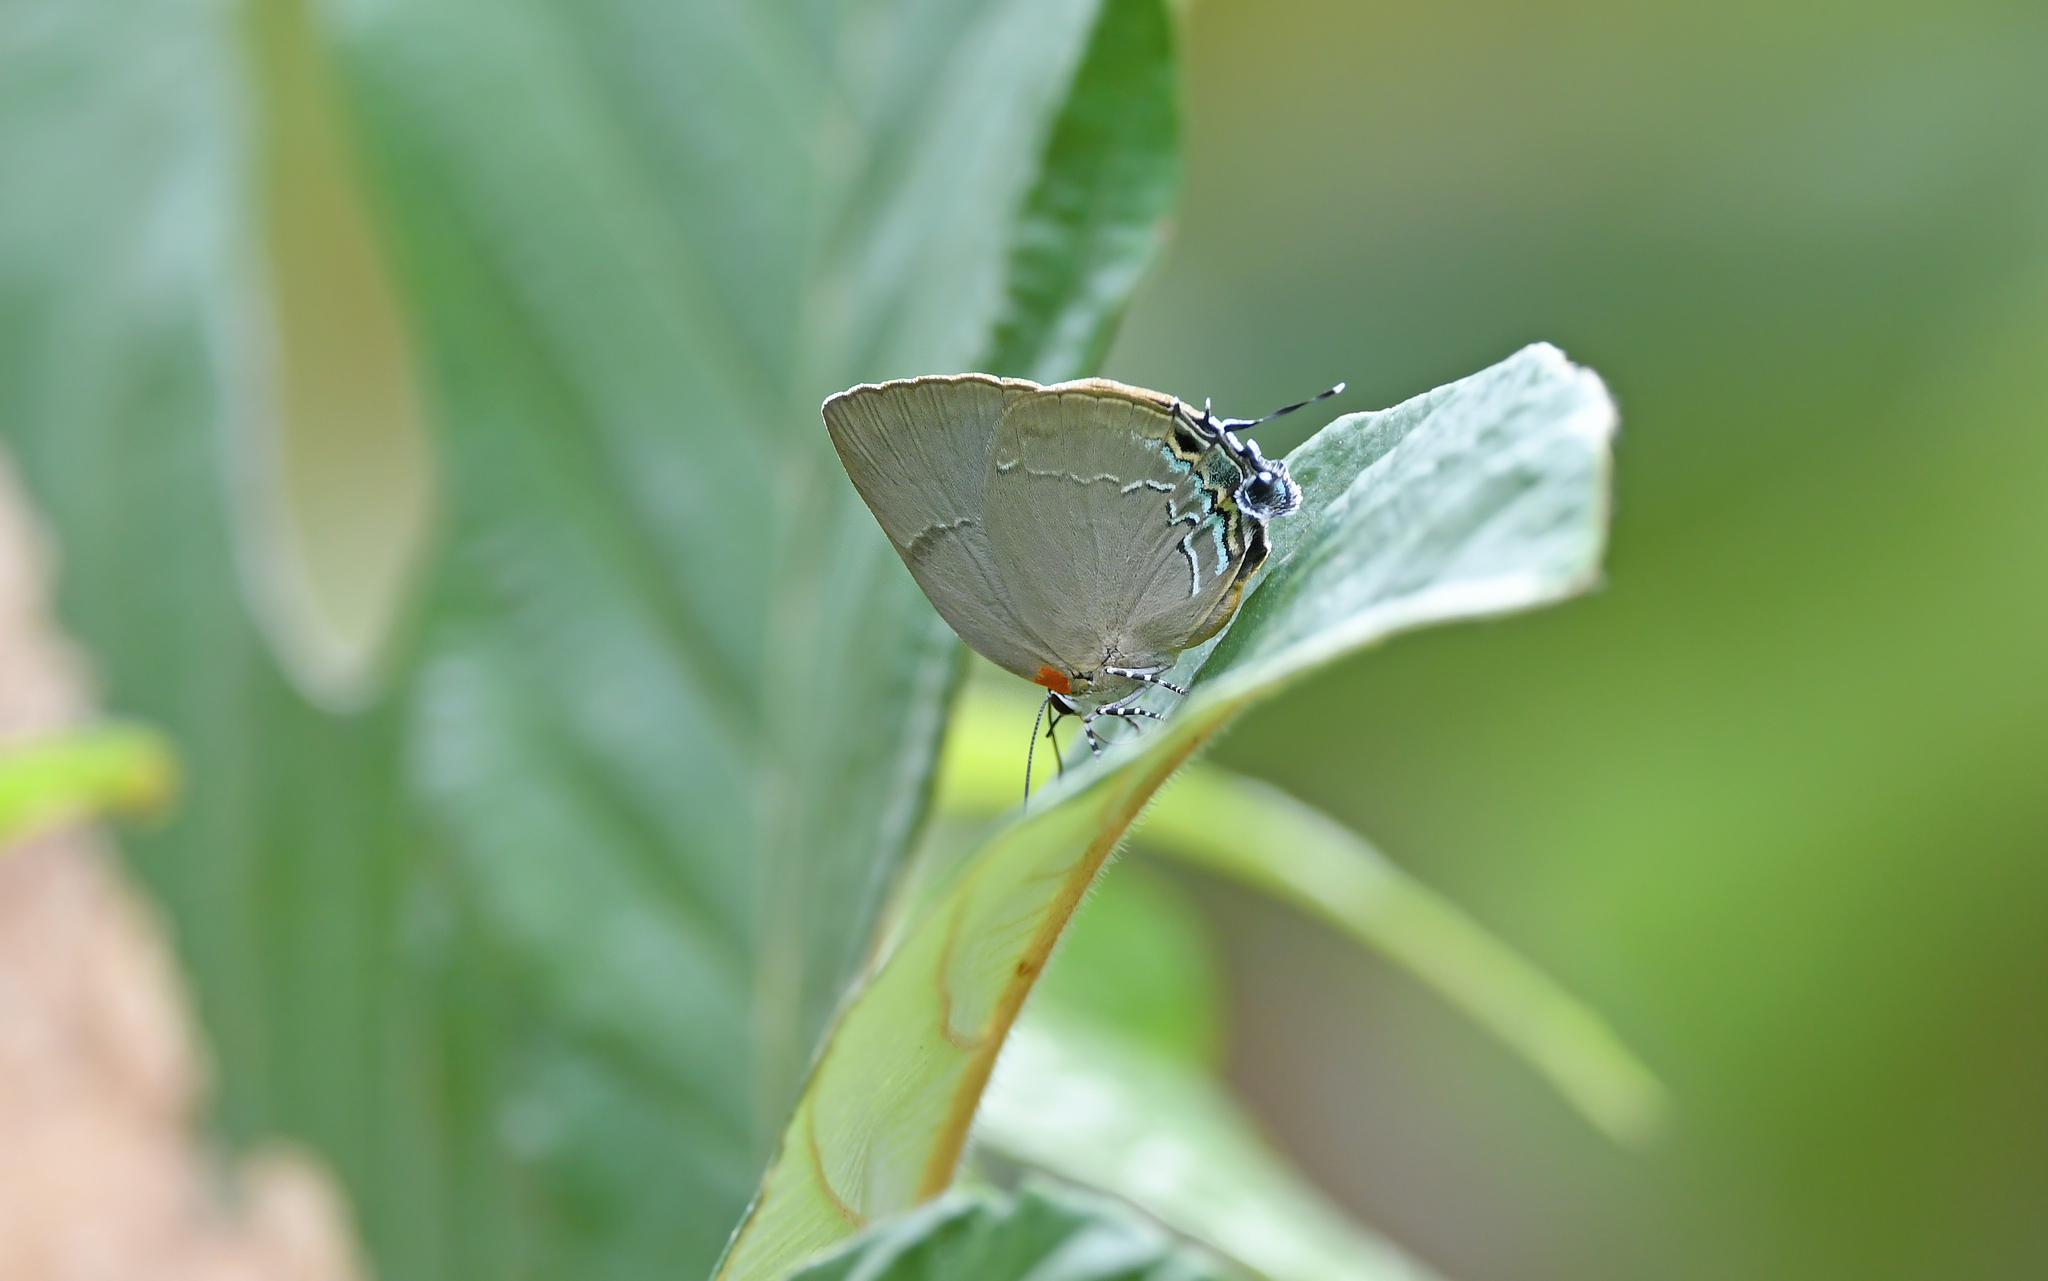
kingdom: Animalia
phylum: Arthropoda
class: Insecta
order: Lepidoptera
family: Lycaenidae
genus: Panthiades
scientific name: Panthiades bitias
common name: Bitias hairstreak
